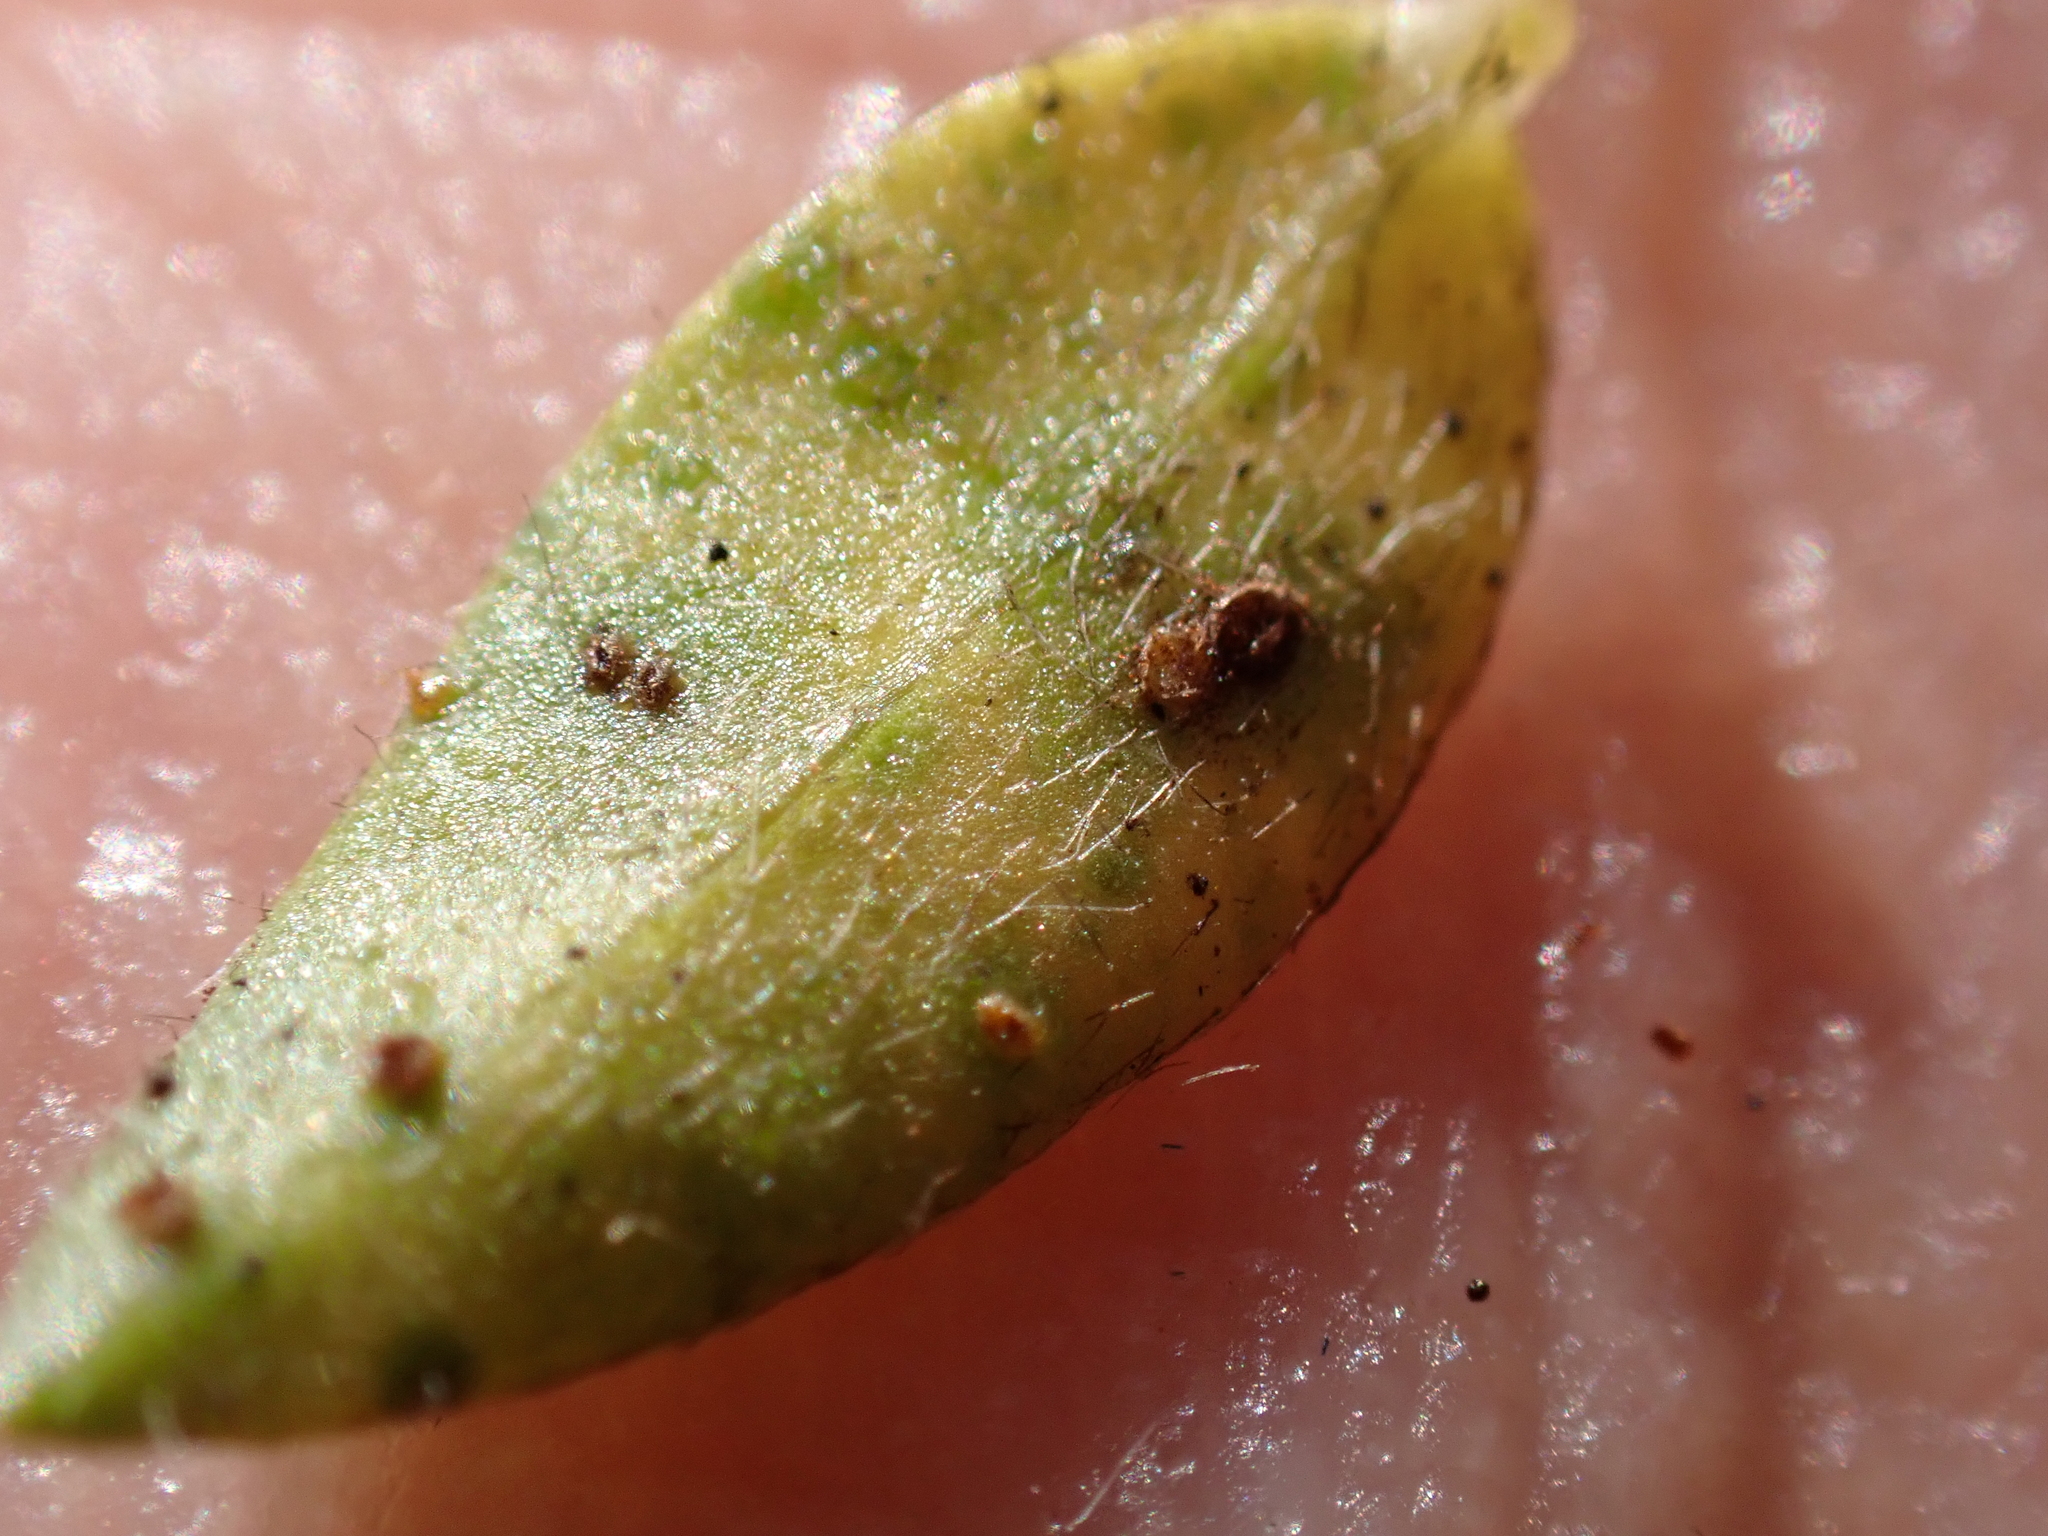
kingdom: Fungi
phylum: Basidiomycota
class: Pucciniomycetes
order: Pucciniales
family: Pucciniaceae
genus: Uromyces
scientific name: Uromyces genistae
